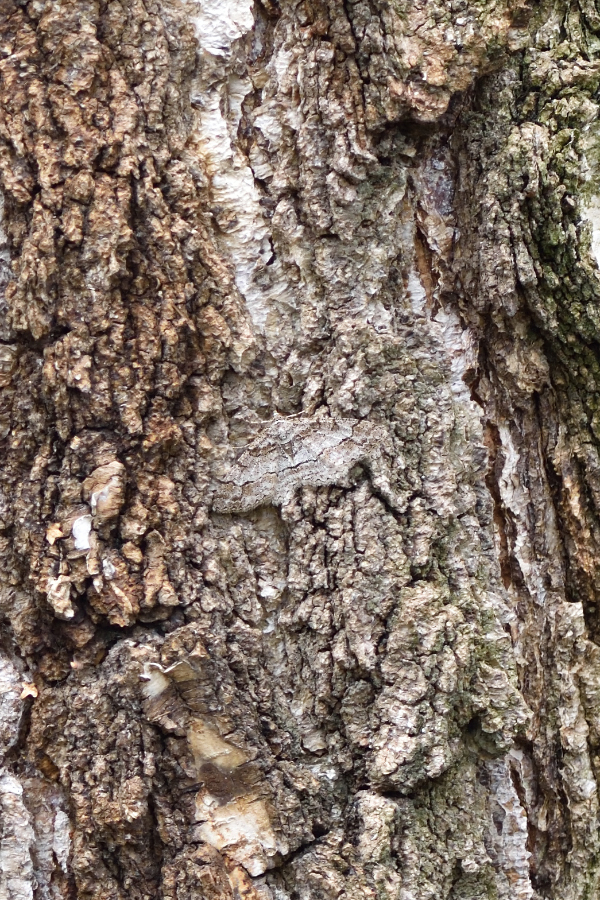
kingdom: Animalia
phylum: Arthropoda
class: Insecta
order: Lepidoptera
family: Geometridae
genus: Paradarisa
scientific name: Paradarisa consonaria
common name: Square spot
